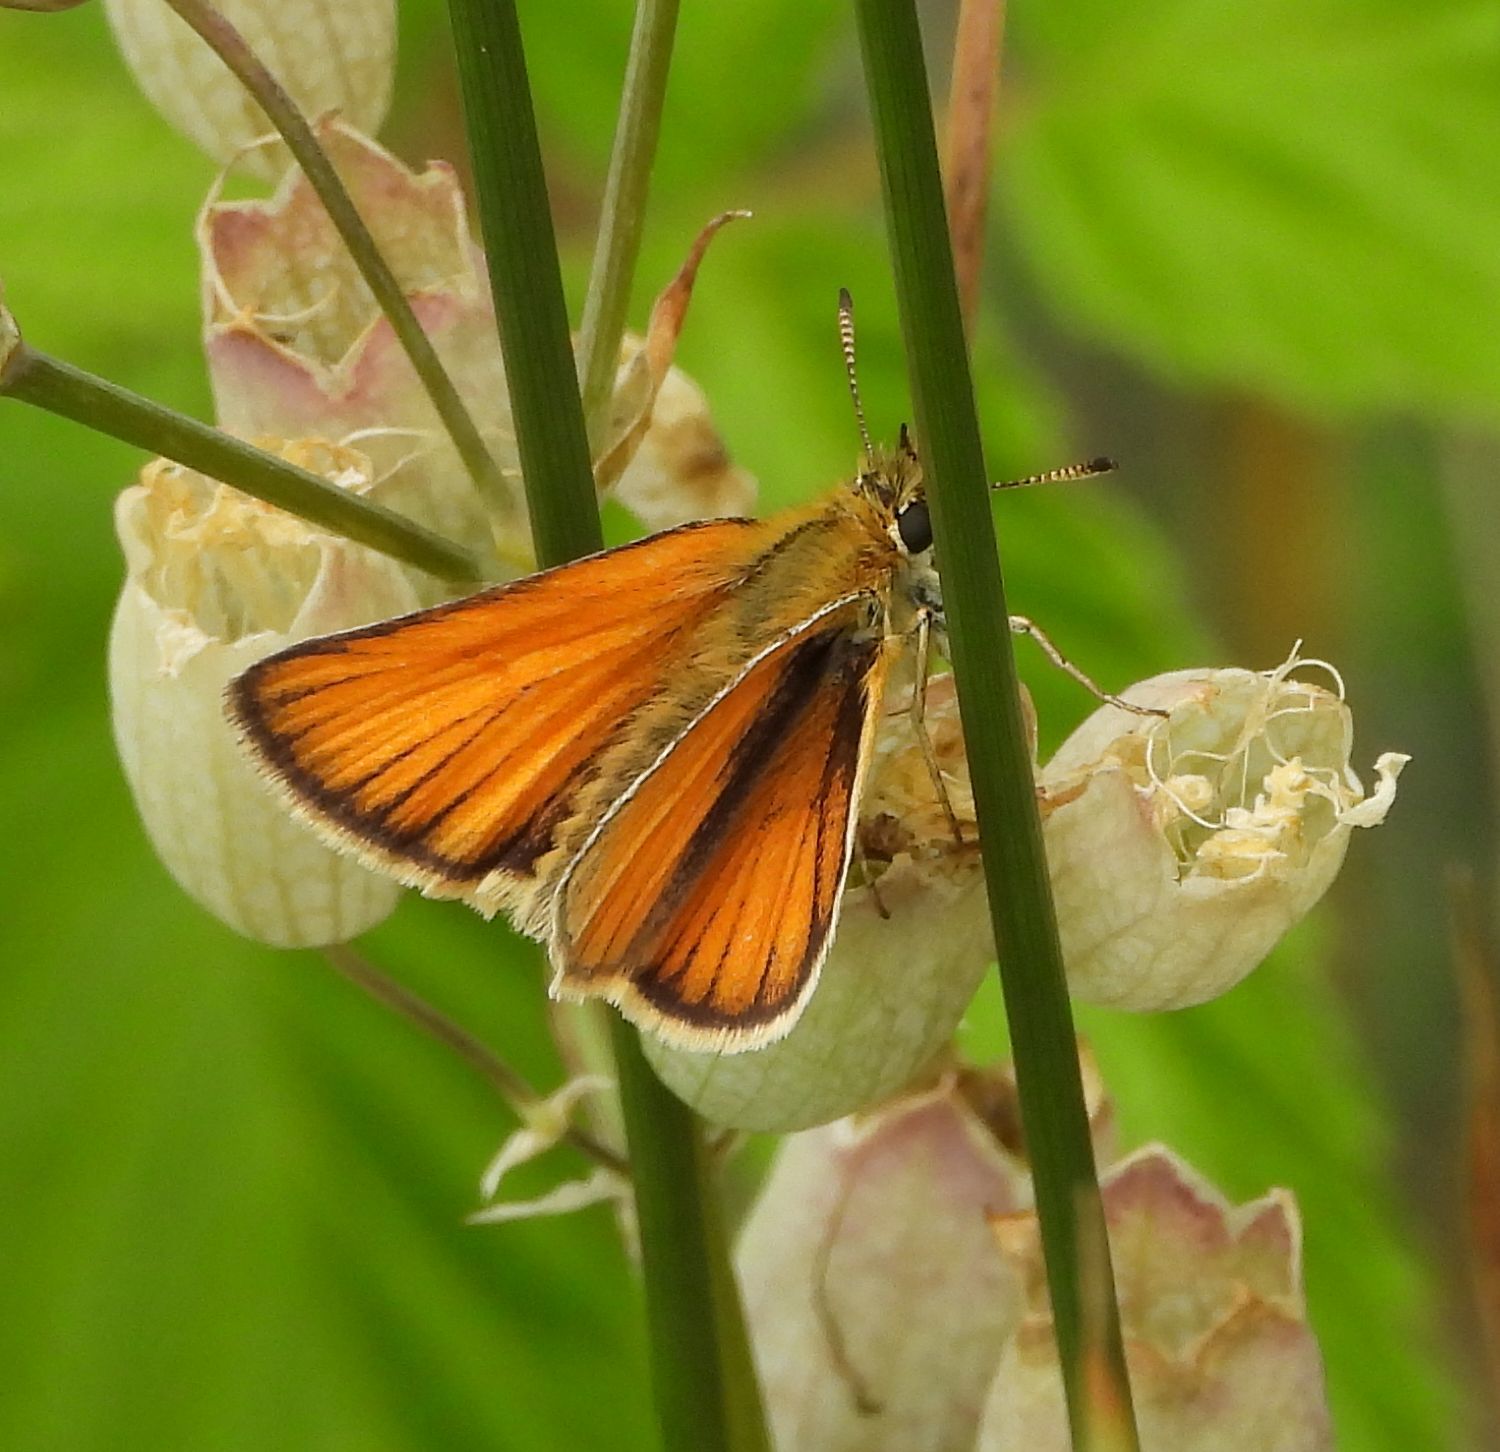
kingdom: Animalia
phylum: Arthropoda
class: Insecta
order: Lepidoptera
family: Hesperiidae
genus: Thymelicus
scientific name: Thymelicus lineola
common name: Essex skipper
